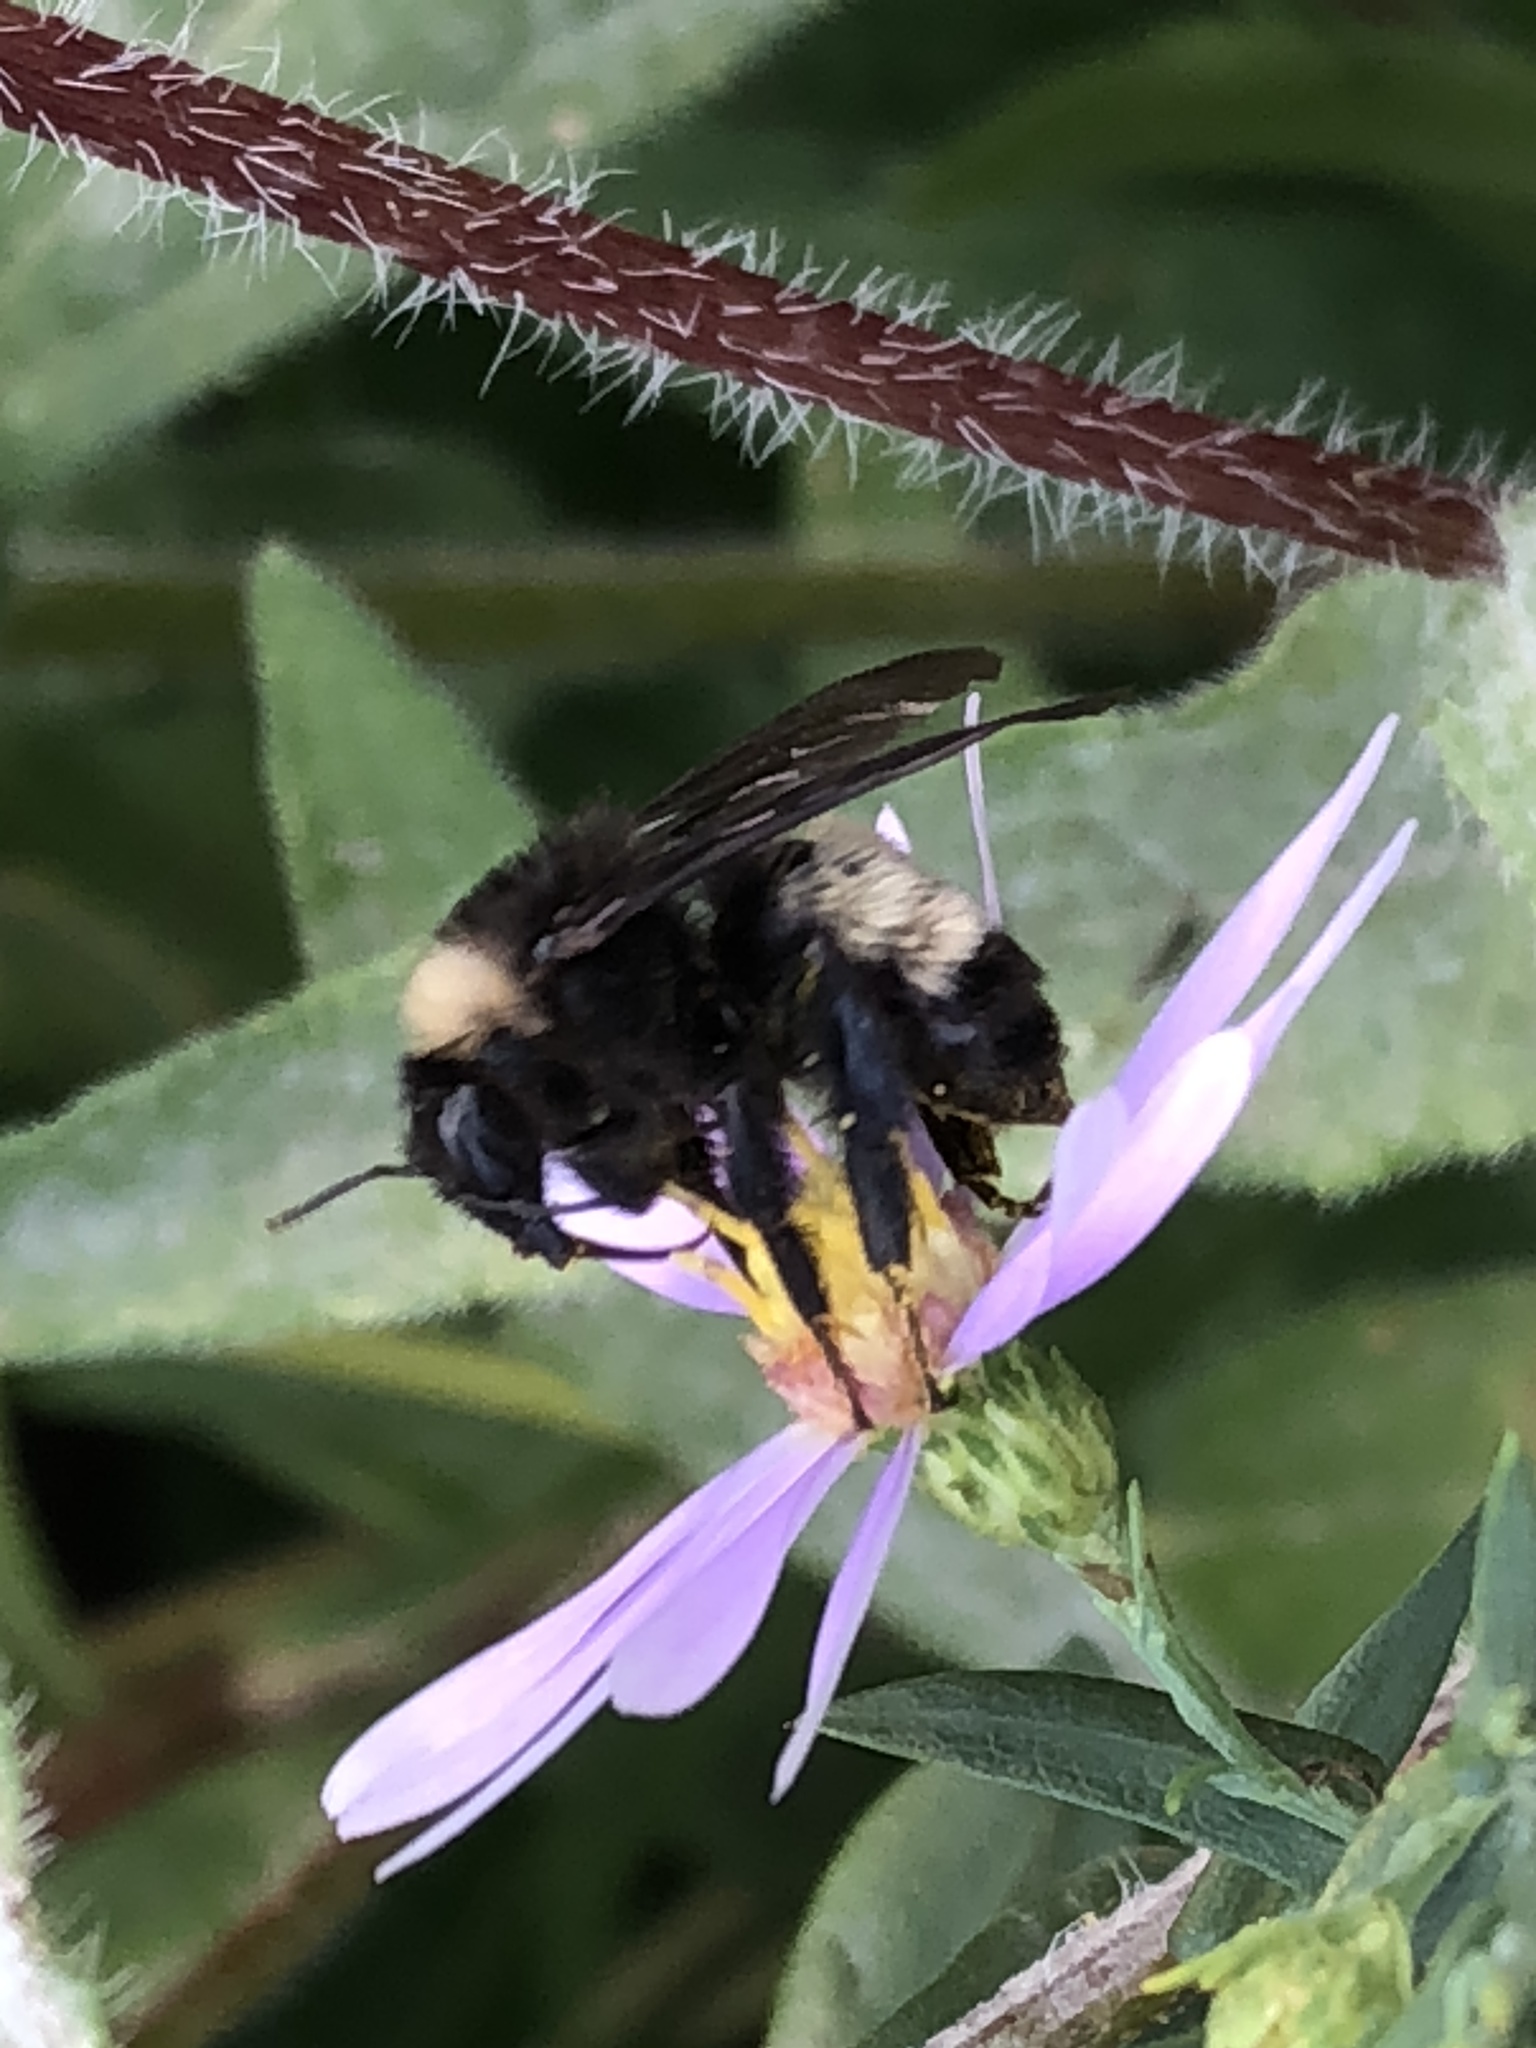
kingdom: Animalia
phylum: Arthropoda
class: Insecta
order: Hymenoptera
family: Apidae
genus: Bombus
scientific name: Bombus pensylvanicus
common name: Bumble bee
